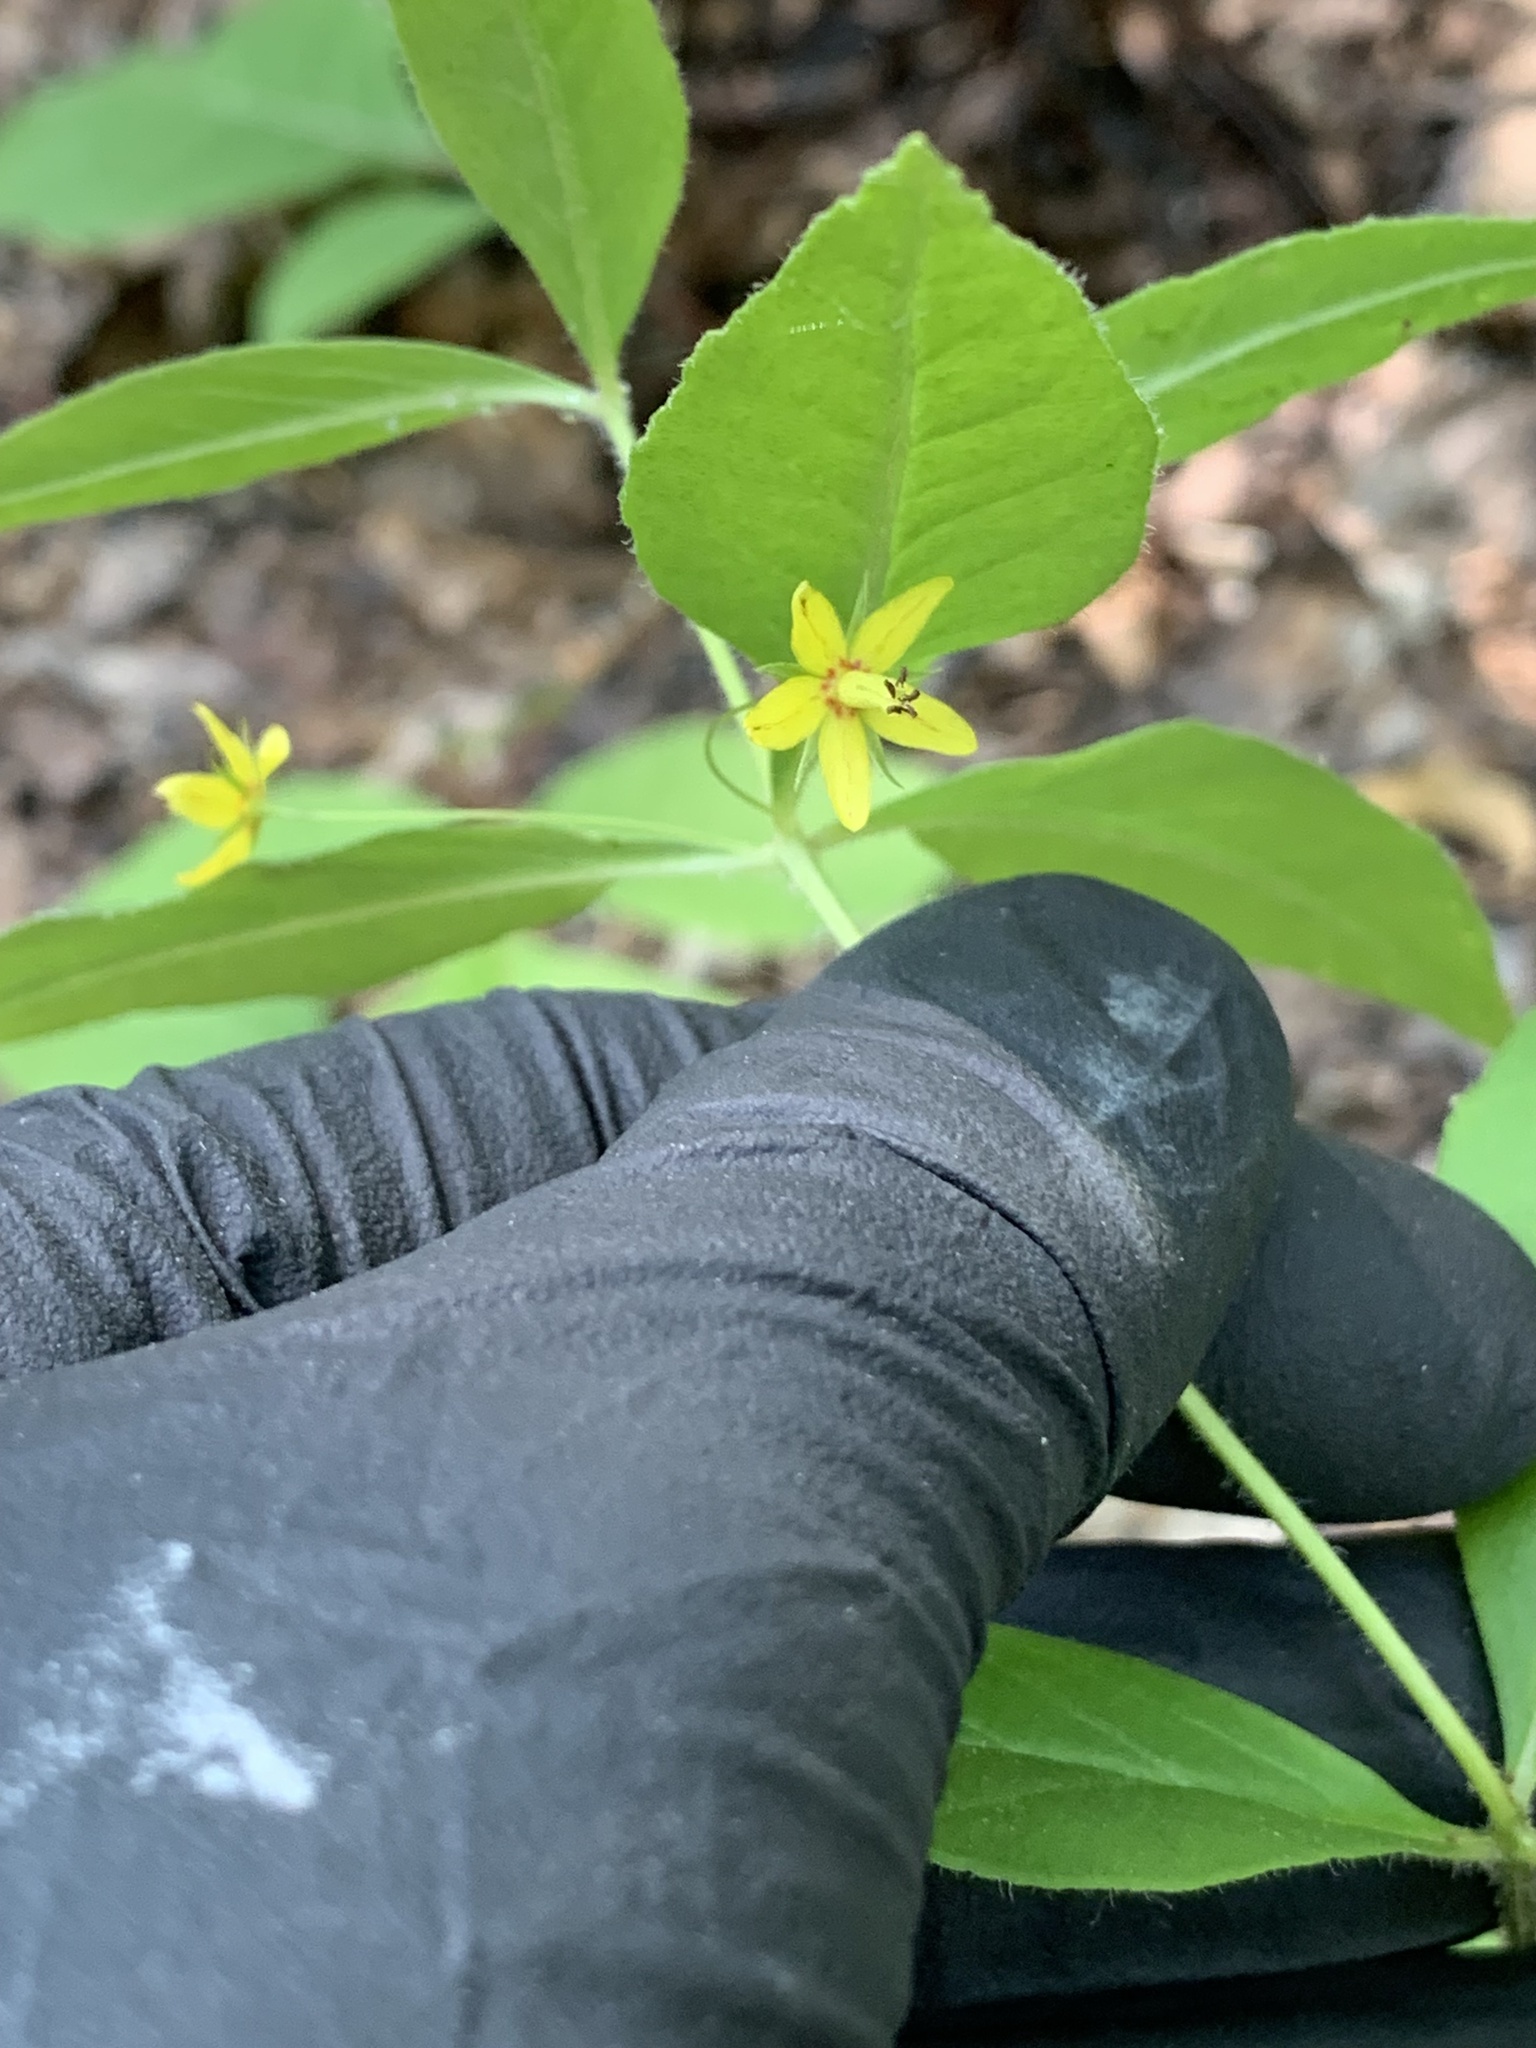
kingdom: Plantae
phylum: Tracheophyta
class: Magnoliopsida
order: Ericales
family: Primulaceae
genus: Lysimachia
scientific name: Lysimachia quadrifolia
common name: Whorled loosestrife
